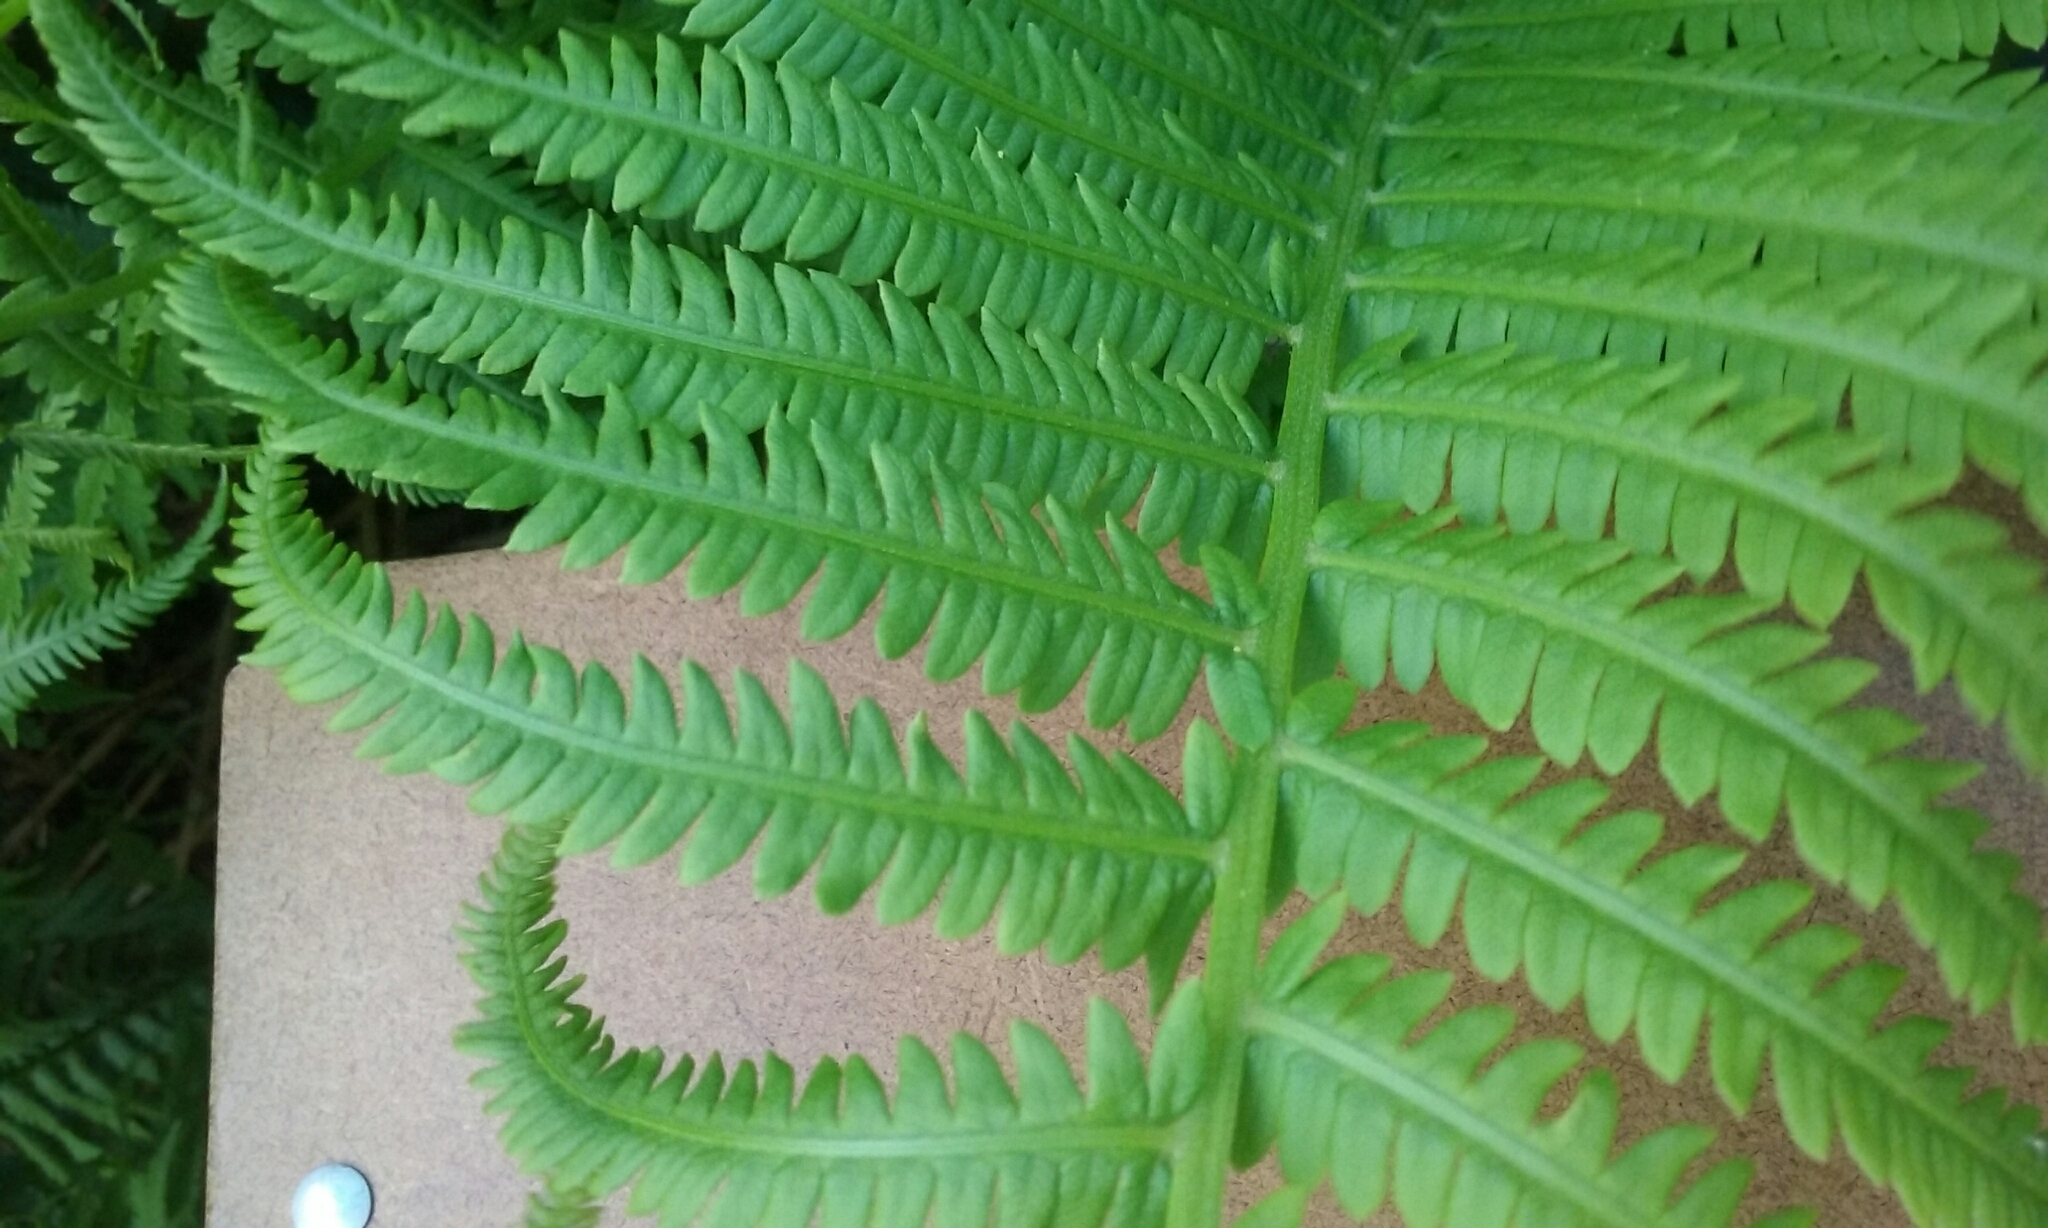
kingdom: Plantae
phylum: Tracheophyta
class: Polypodiopsida
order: Polypodiales
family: Onocleaceae
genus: Matteuccia
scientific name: Matteuccia struthiopteris
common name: Ostrich fern
